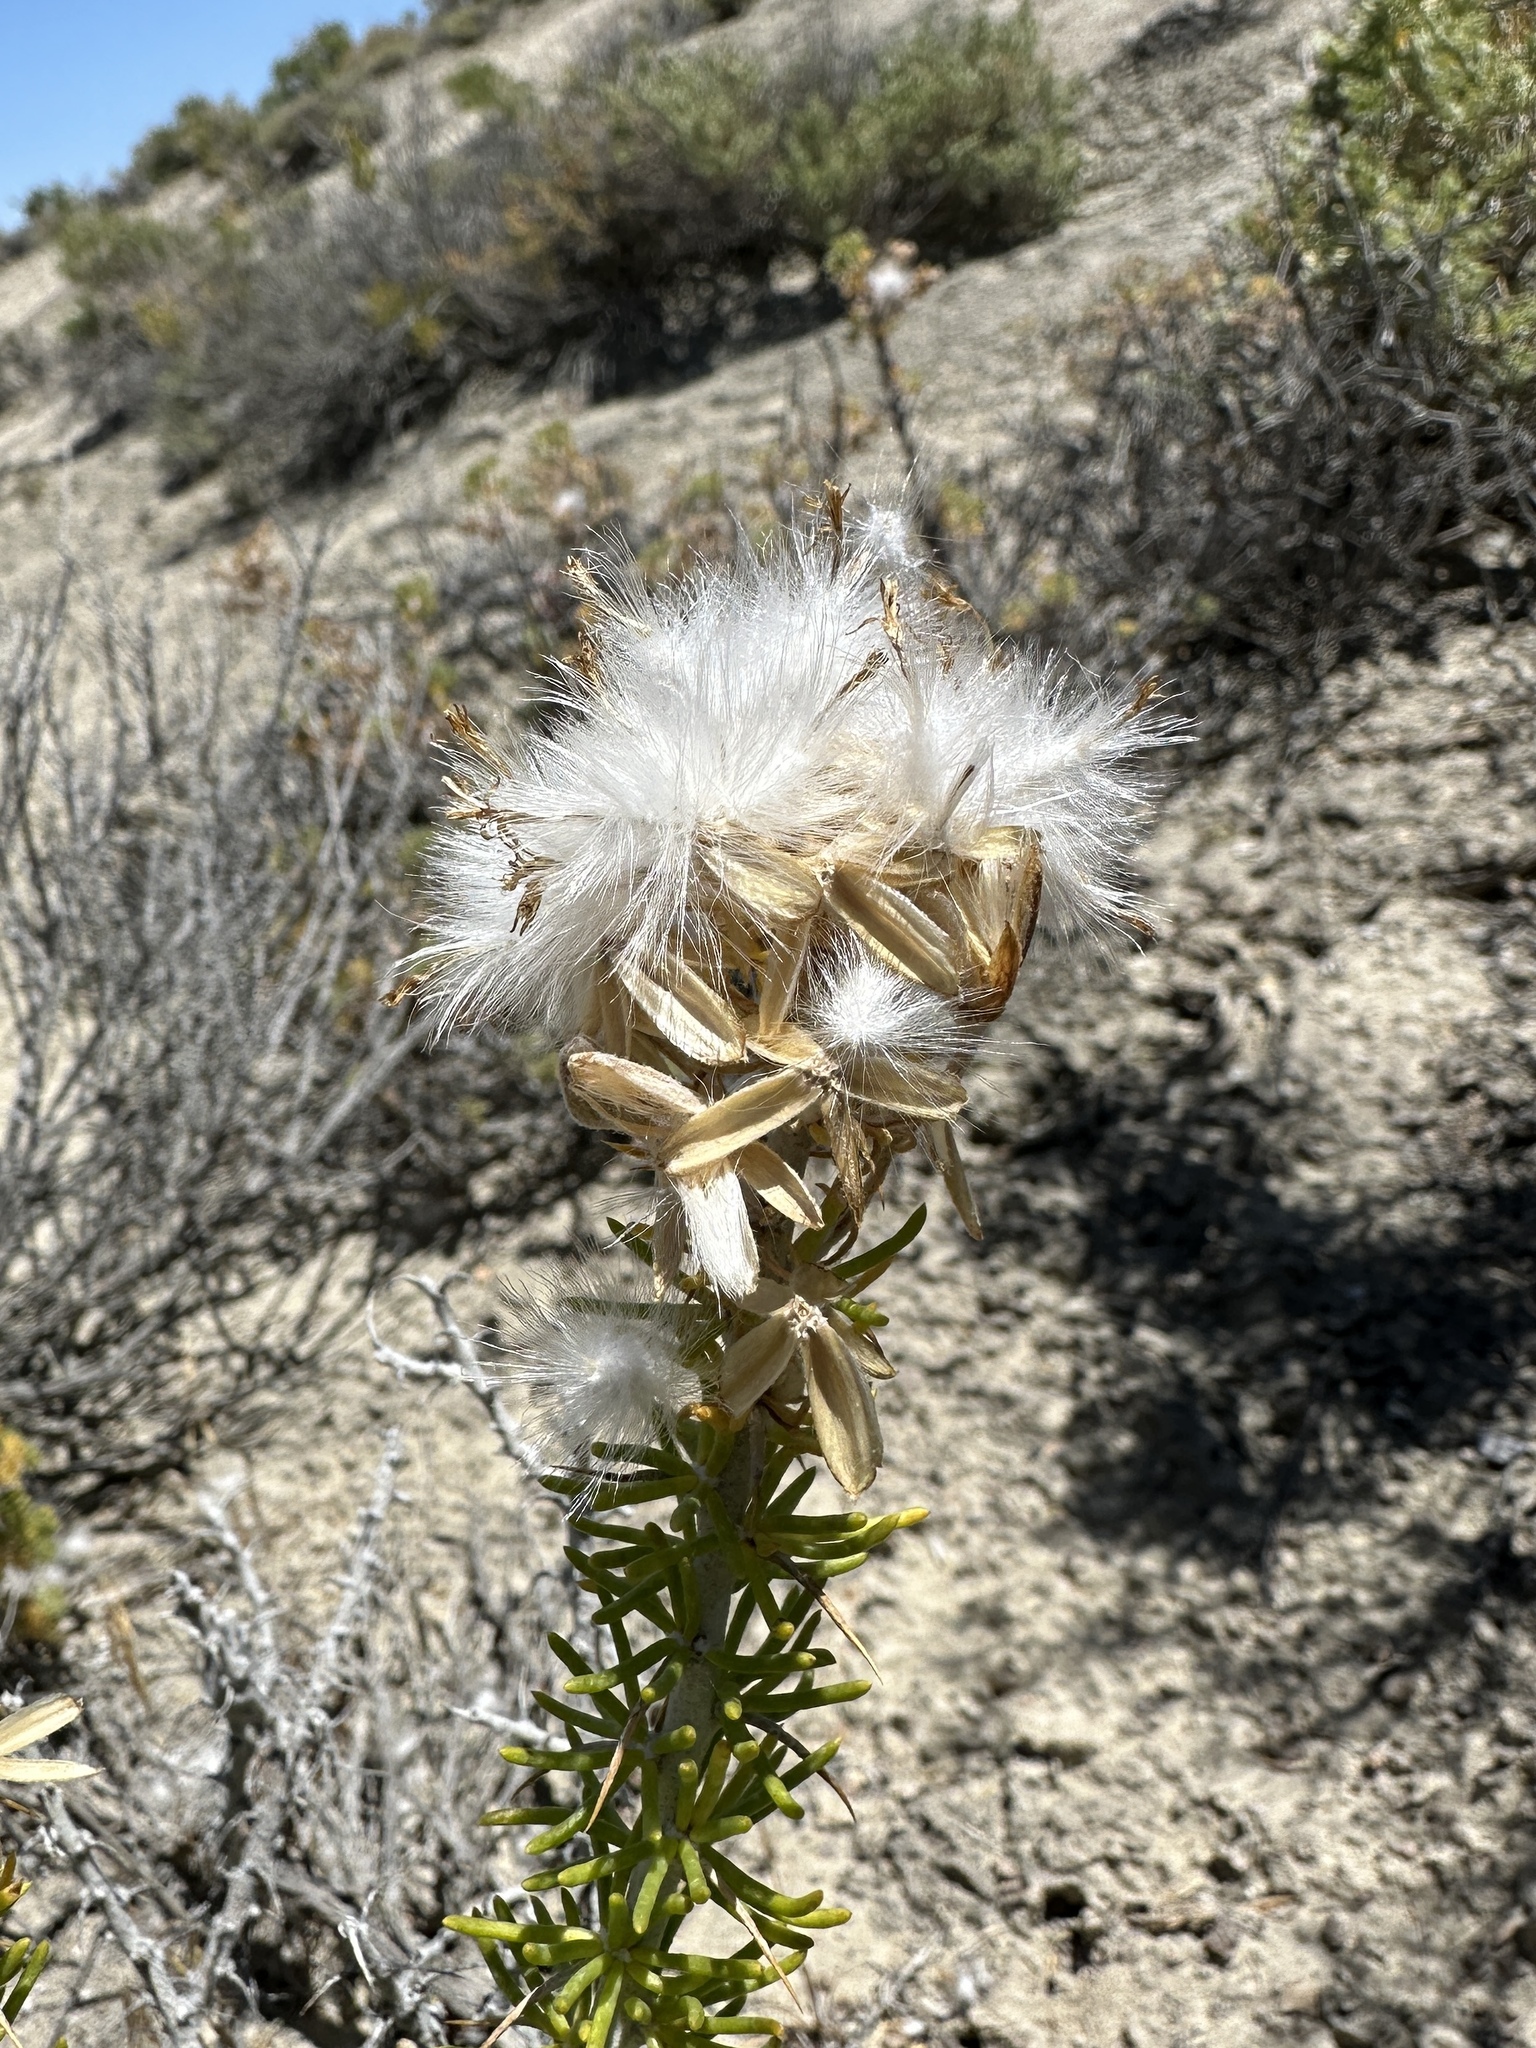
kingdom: Plantae
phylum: Tracheophyta
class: Magnoliopsida
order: Asterales
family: Asteraceae
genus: Tetradymia
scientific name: Tetradymia spinosa
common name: Thorny horsebrush
